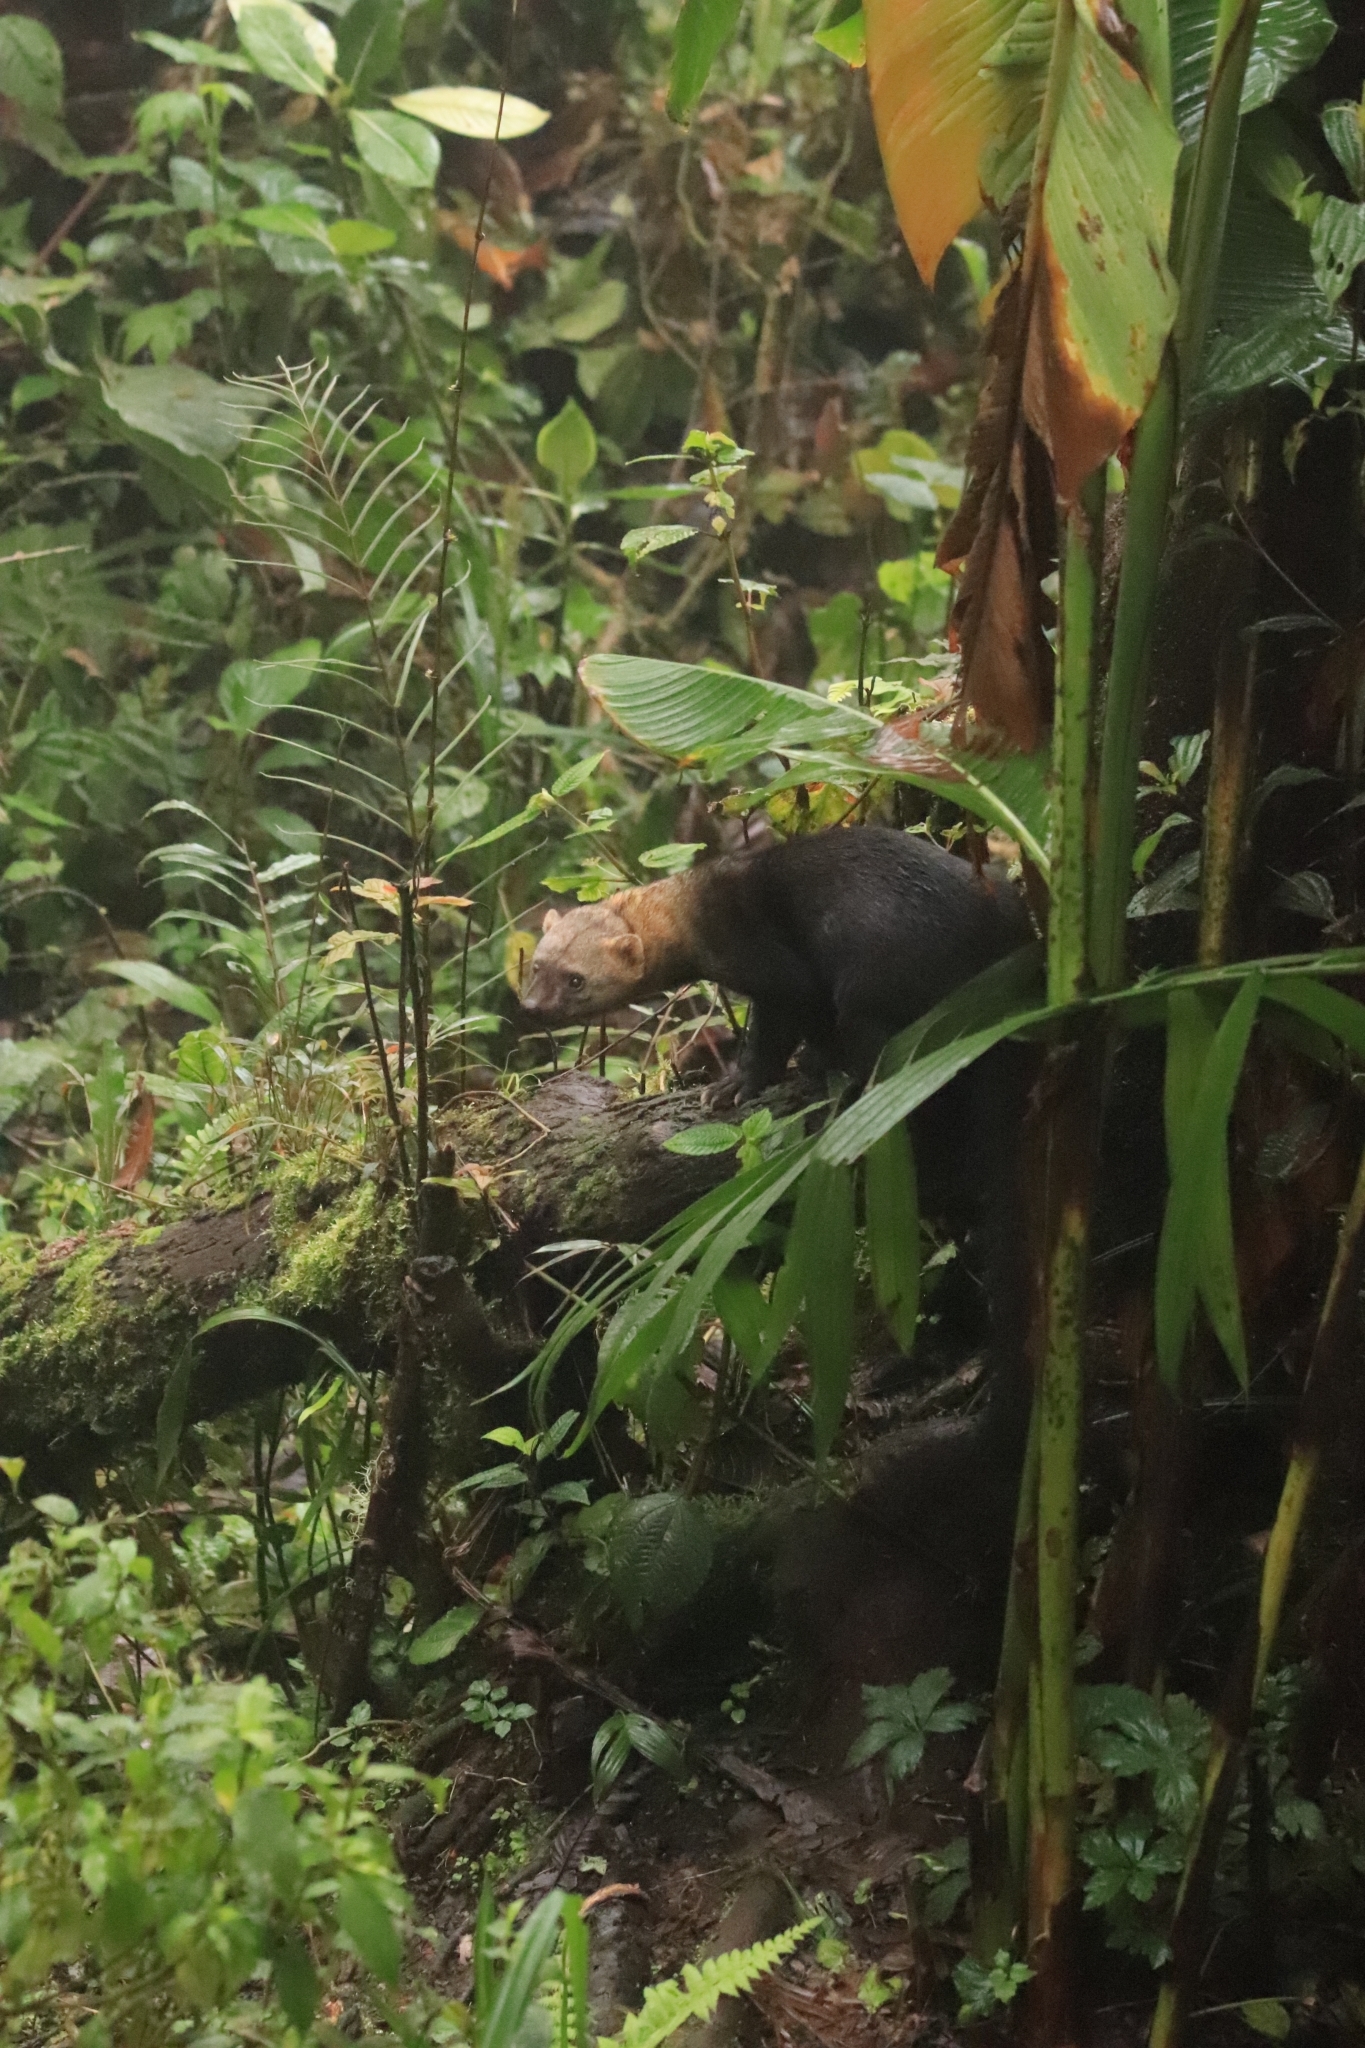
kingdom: Animalia
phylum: Chordata
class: Mammalia
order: Carnivora
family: Mustelidae
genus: Eira
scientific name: Eira barbara
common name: Tayra
